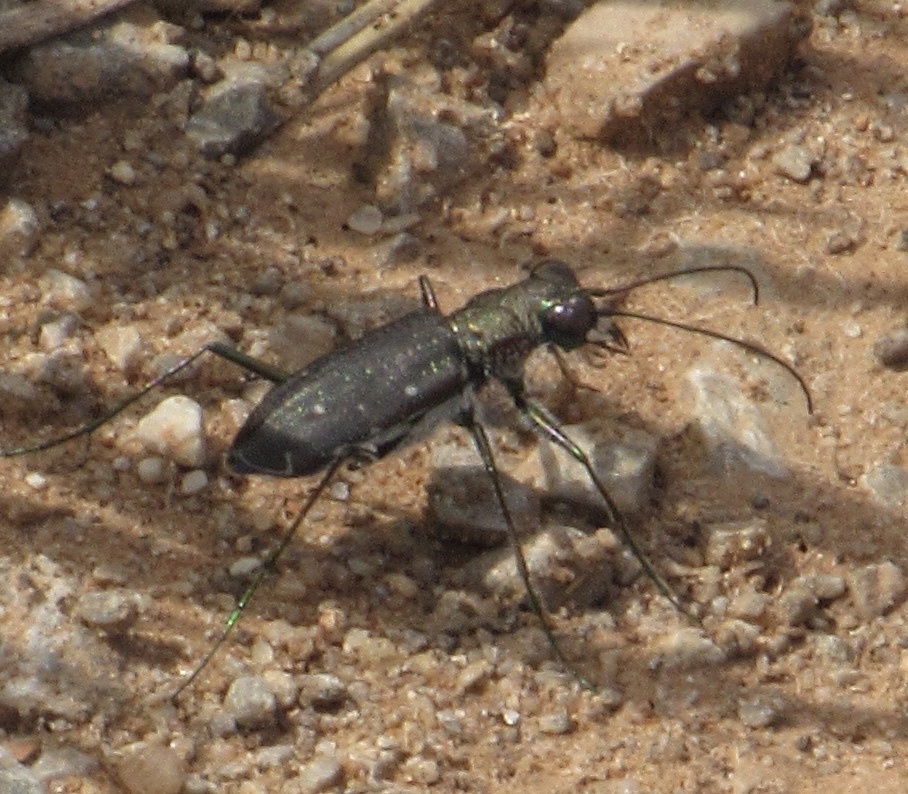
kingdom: Animalia
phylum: Arthropoda
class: Insecta
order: Coleoptera
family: Carabidae
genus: Cicindela
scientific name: Cicindela punctulata
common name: Punctured tiger beetle
